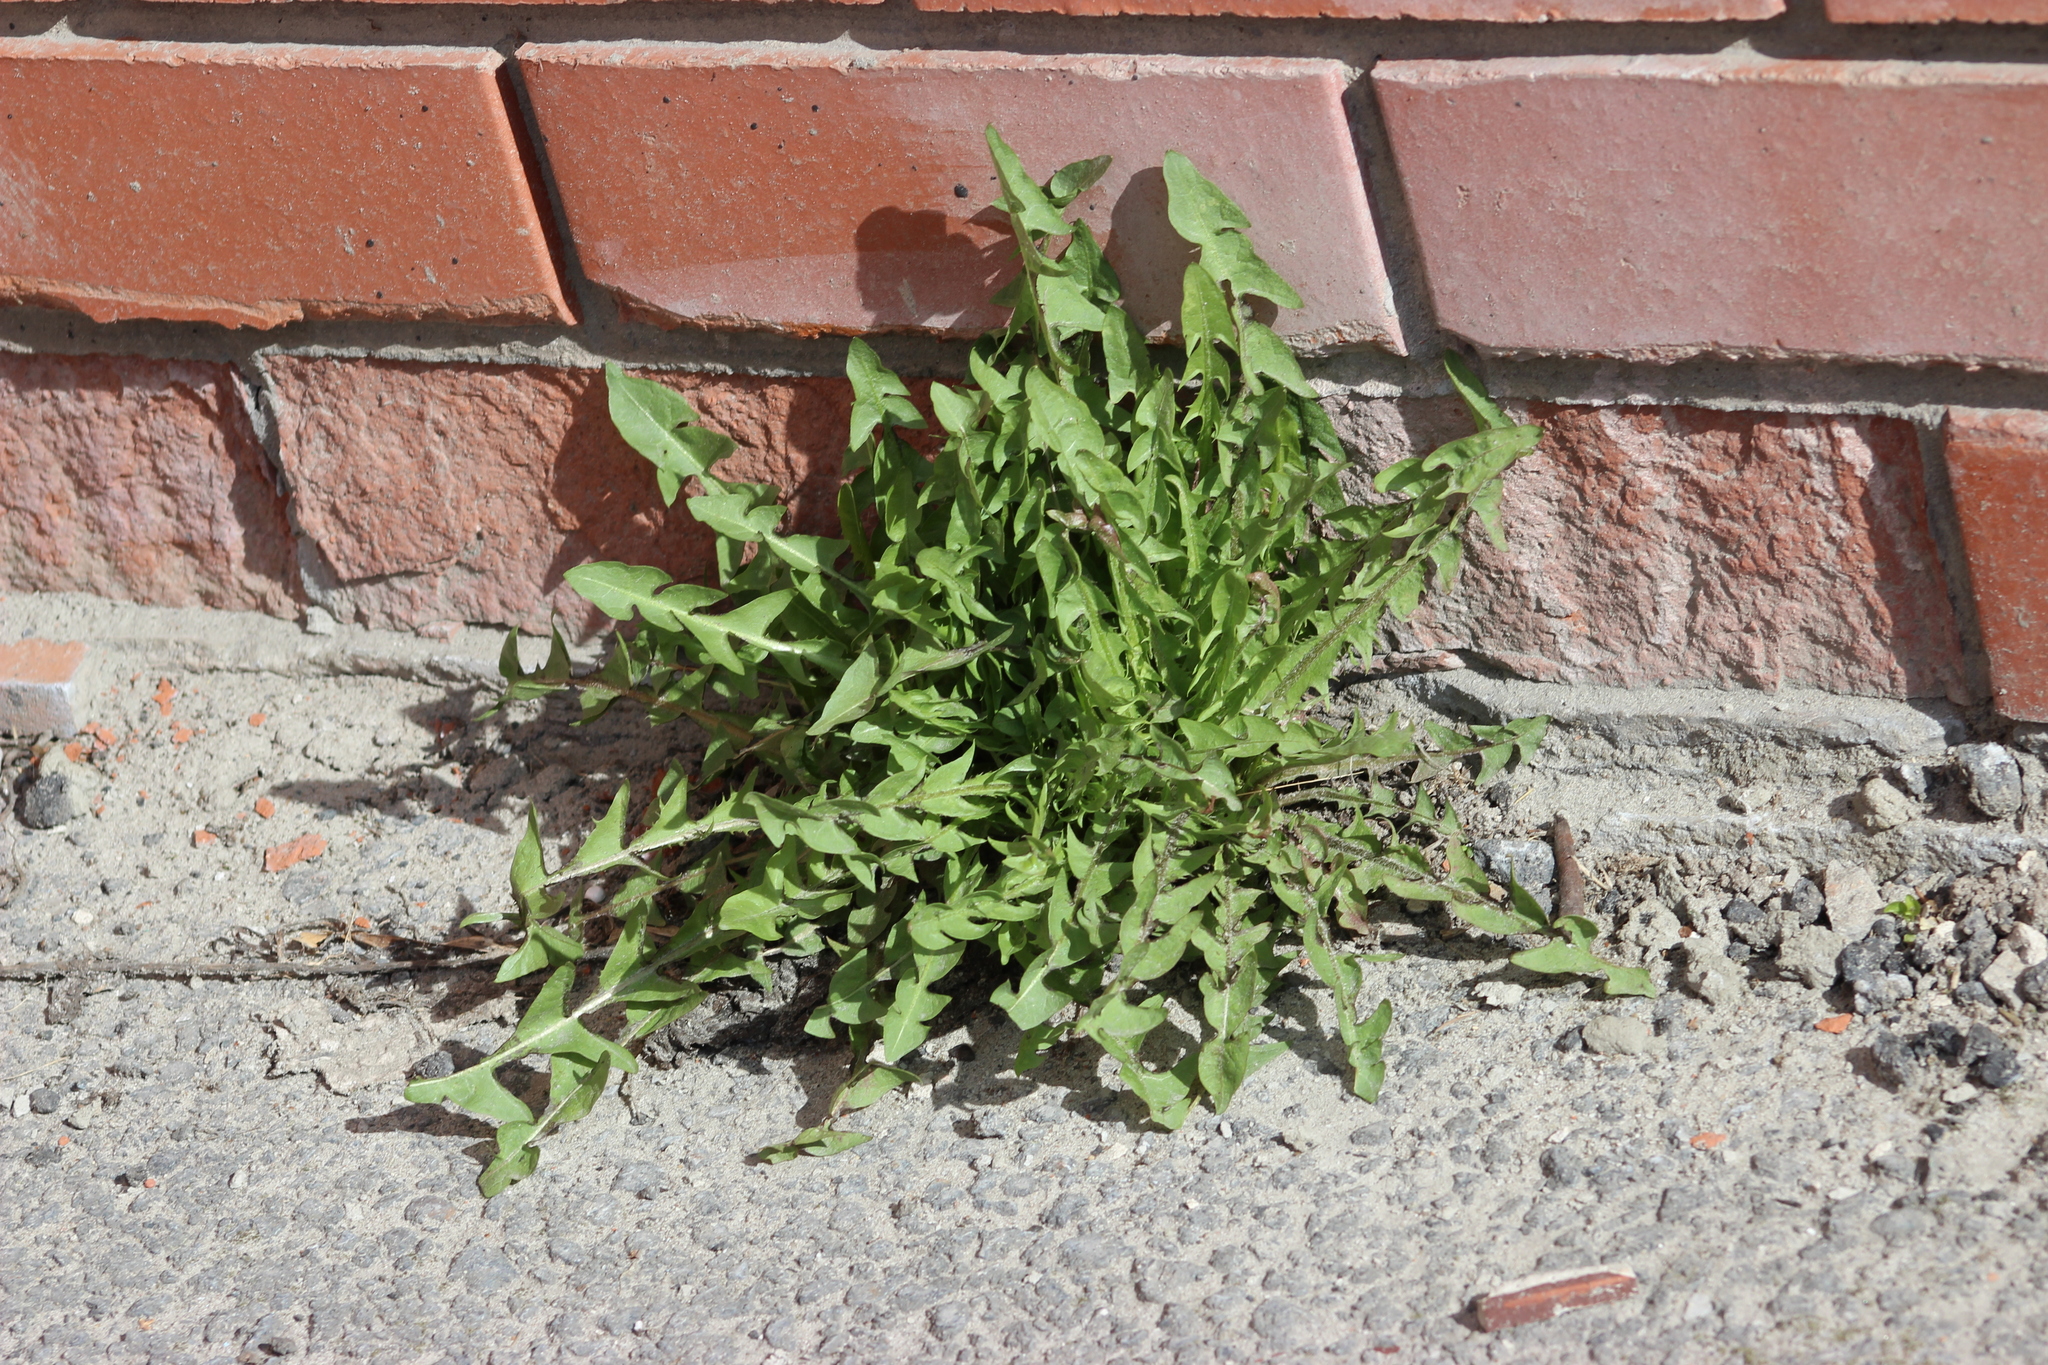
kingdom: Plantae
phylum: Tracheophyta
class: Magnoliopsida
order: Asterales
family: Asteraceae
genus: Taraxacum
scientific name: Taraxacum officinale
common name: Common dandelion
